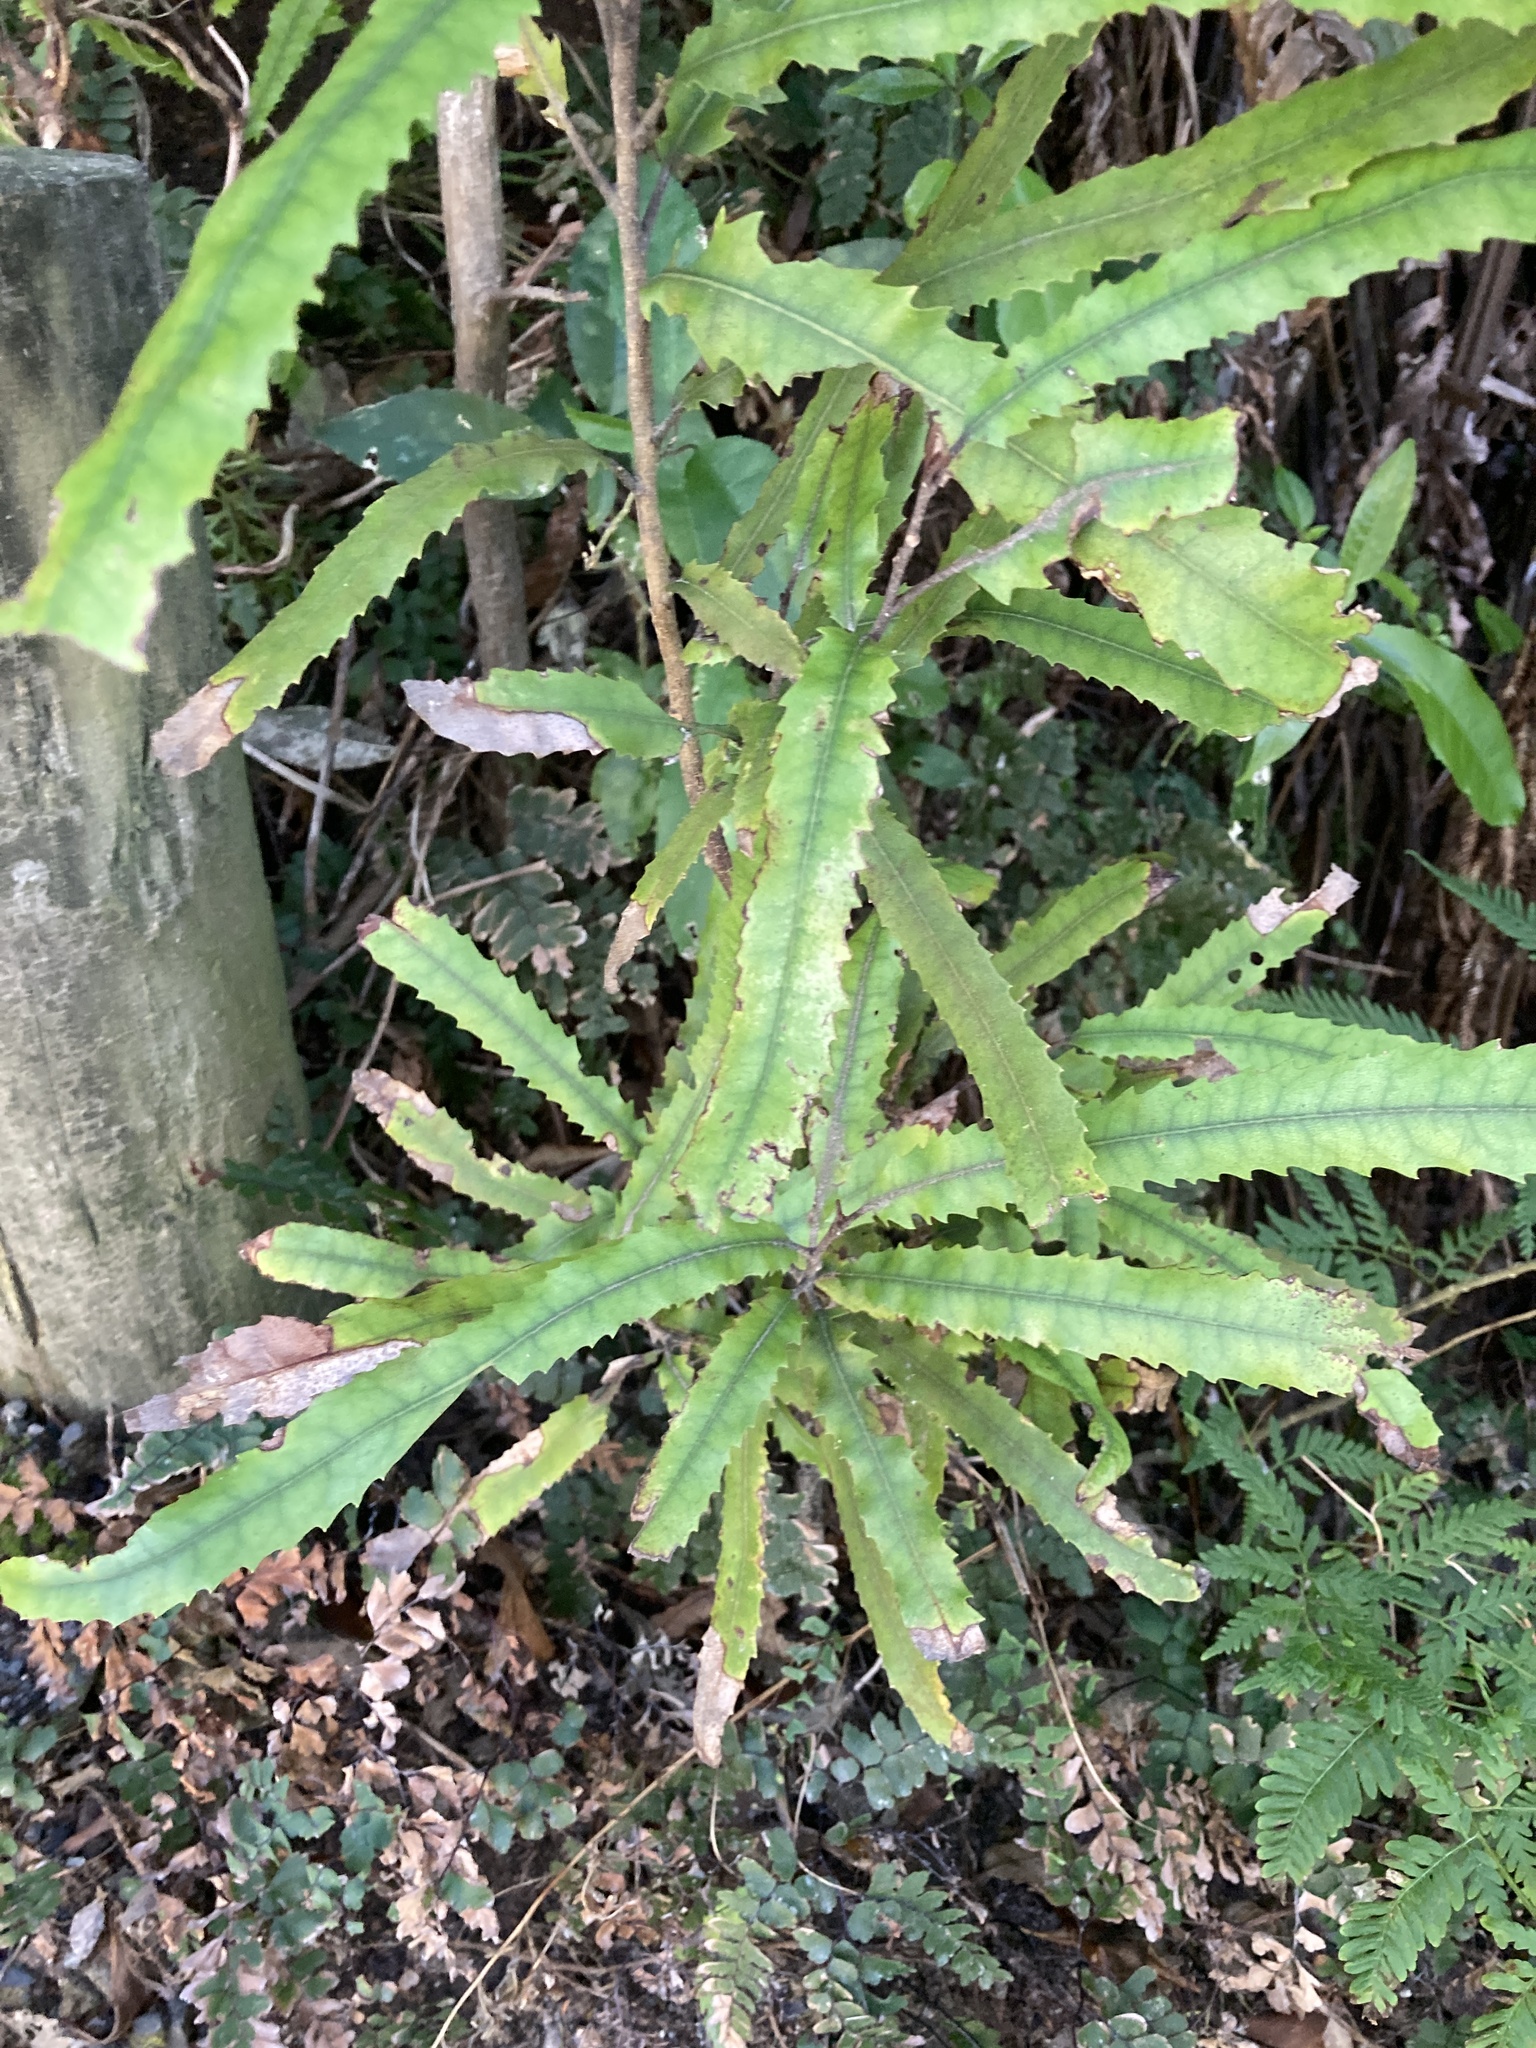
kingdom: Plantae
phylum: Tracheophyta
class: Magnoliopsida
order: Proteales
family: Proteaceae
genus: Knightia
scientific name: Knightia excelsa
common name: New zealand-honeysuckle
